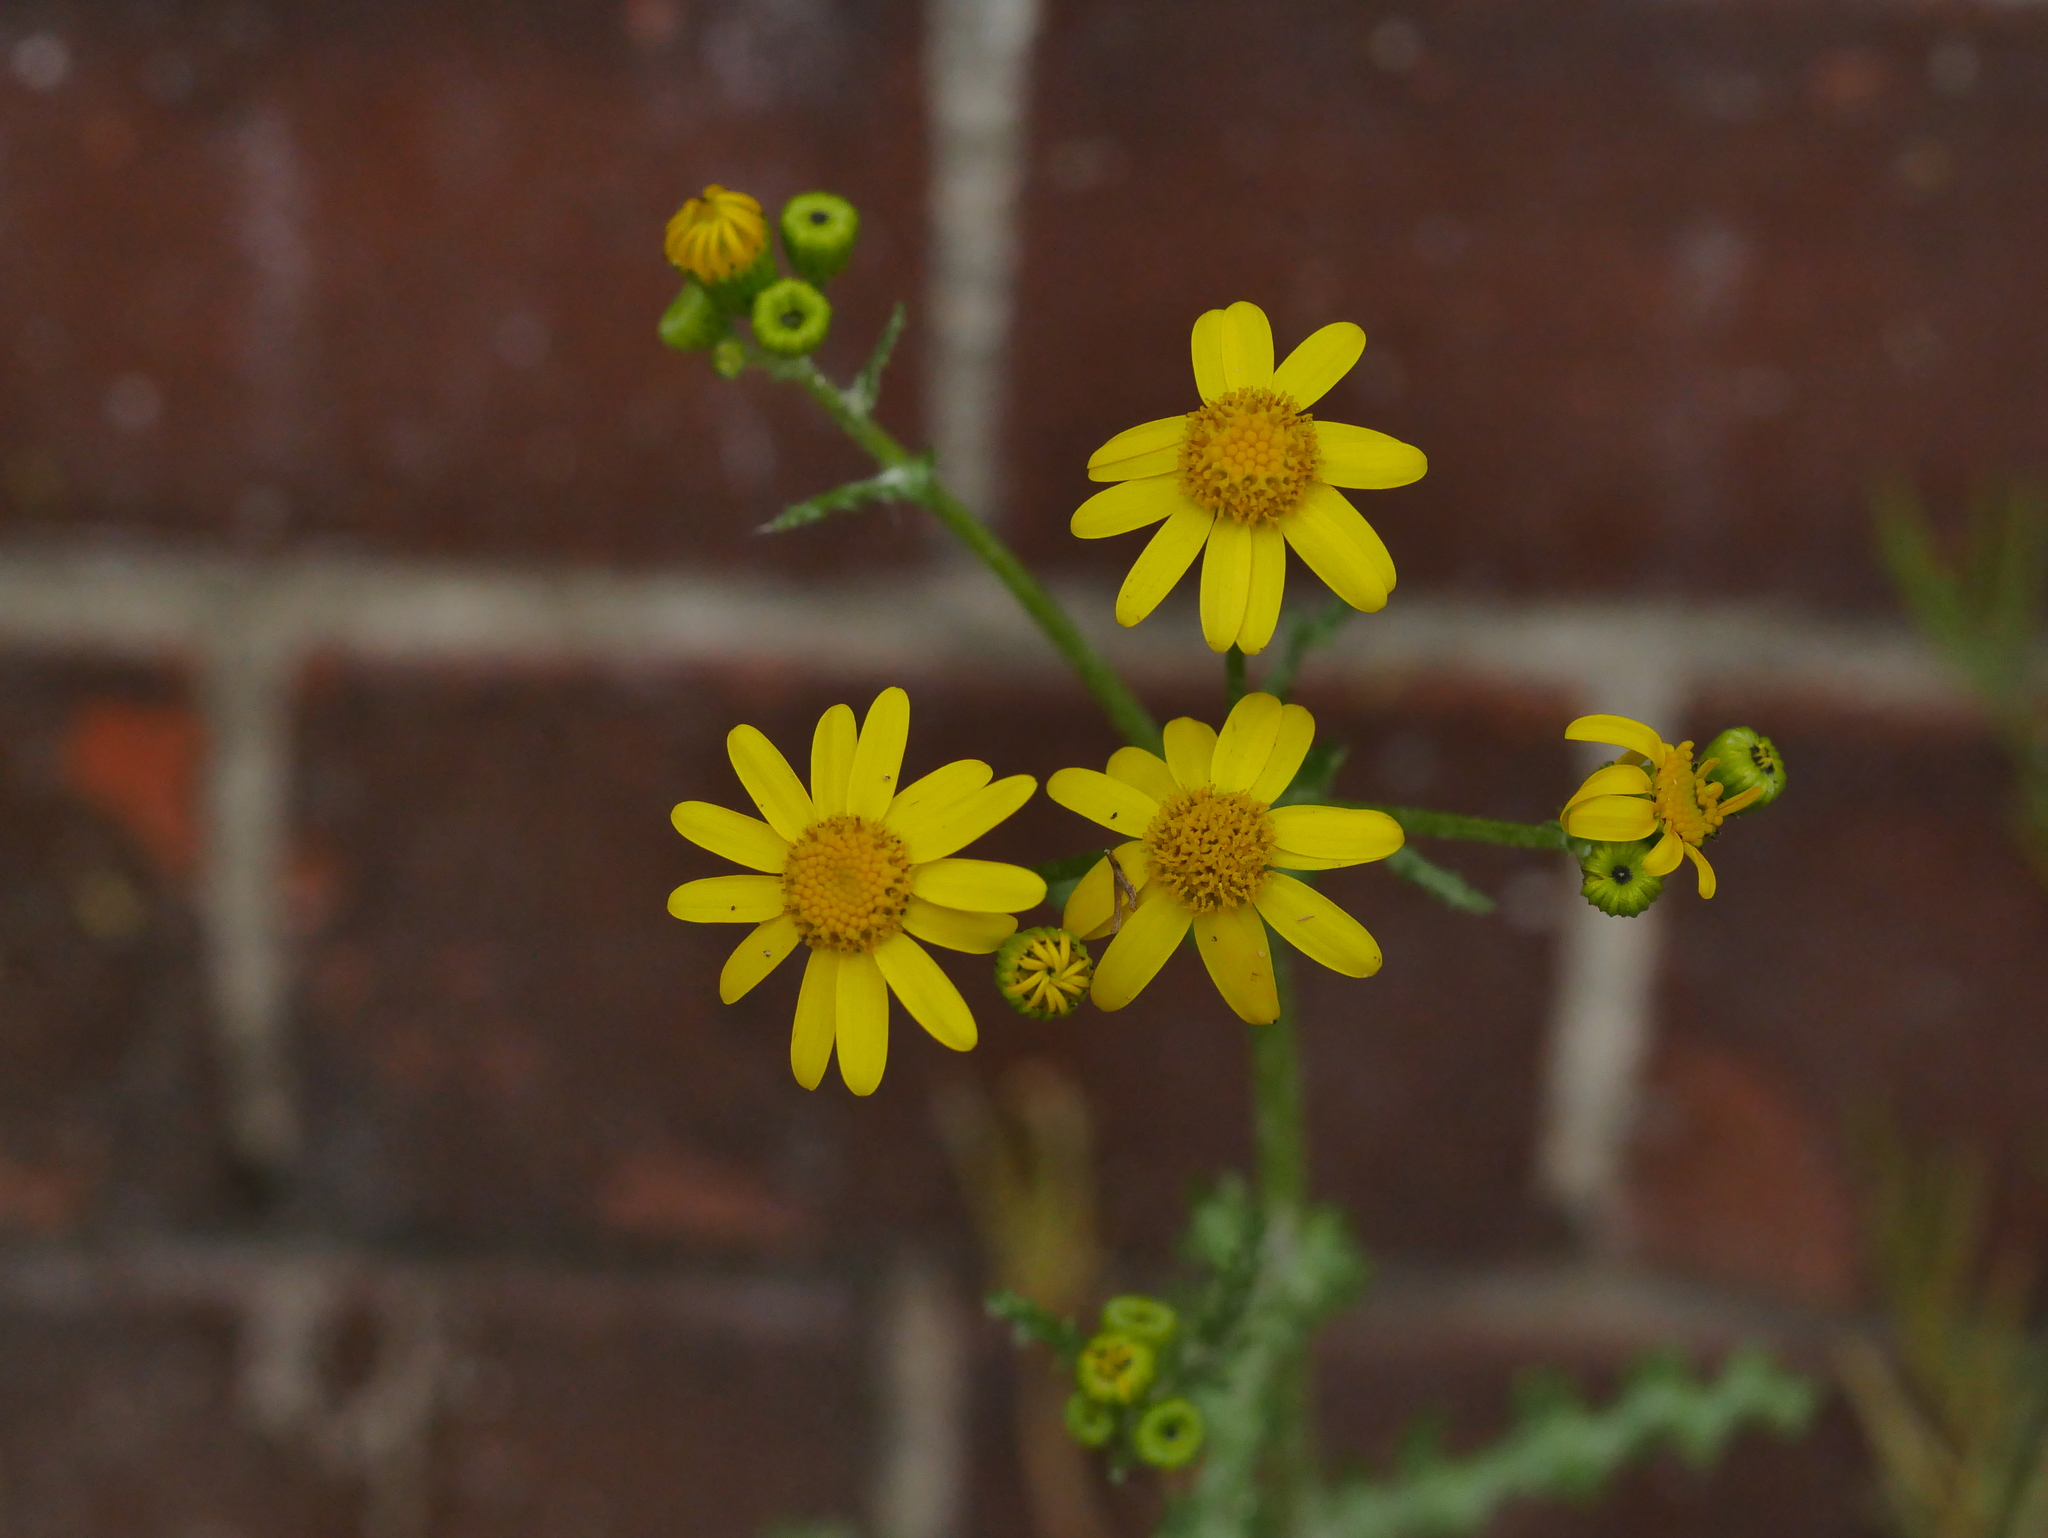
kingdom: Plantae
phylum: Tracheophyta
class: Magnoliopsida
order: Asterales
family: Asteraceae
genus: Senecio
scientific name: Senecio vernalis
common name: Eastern groundsel
